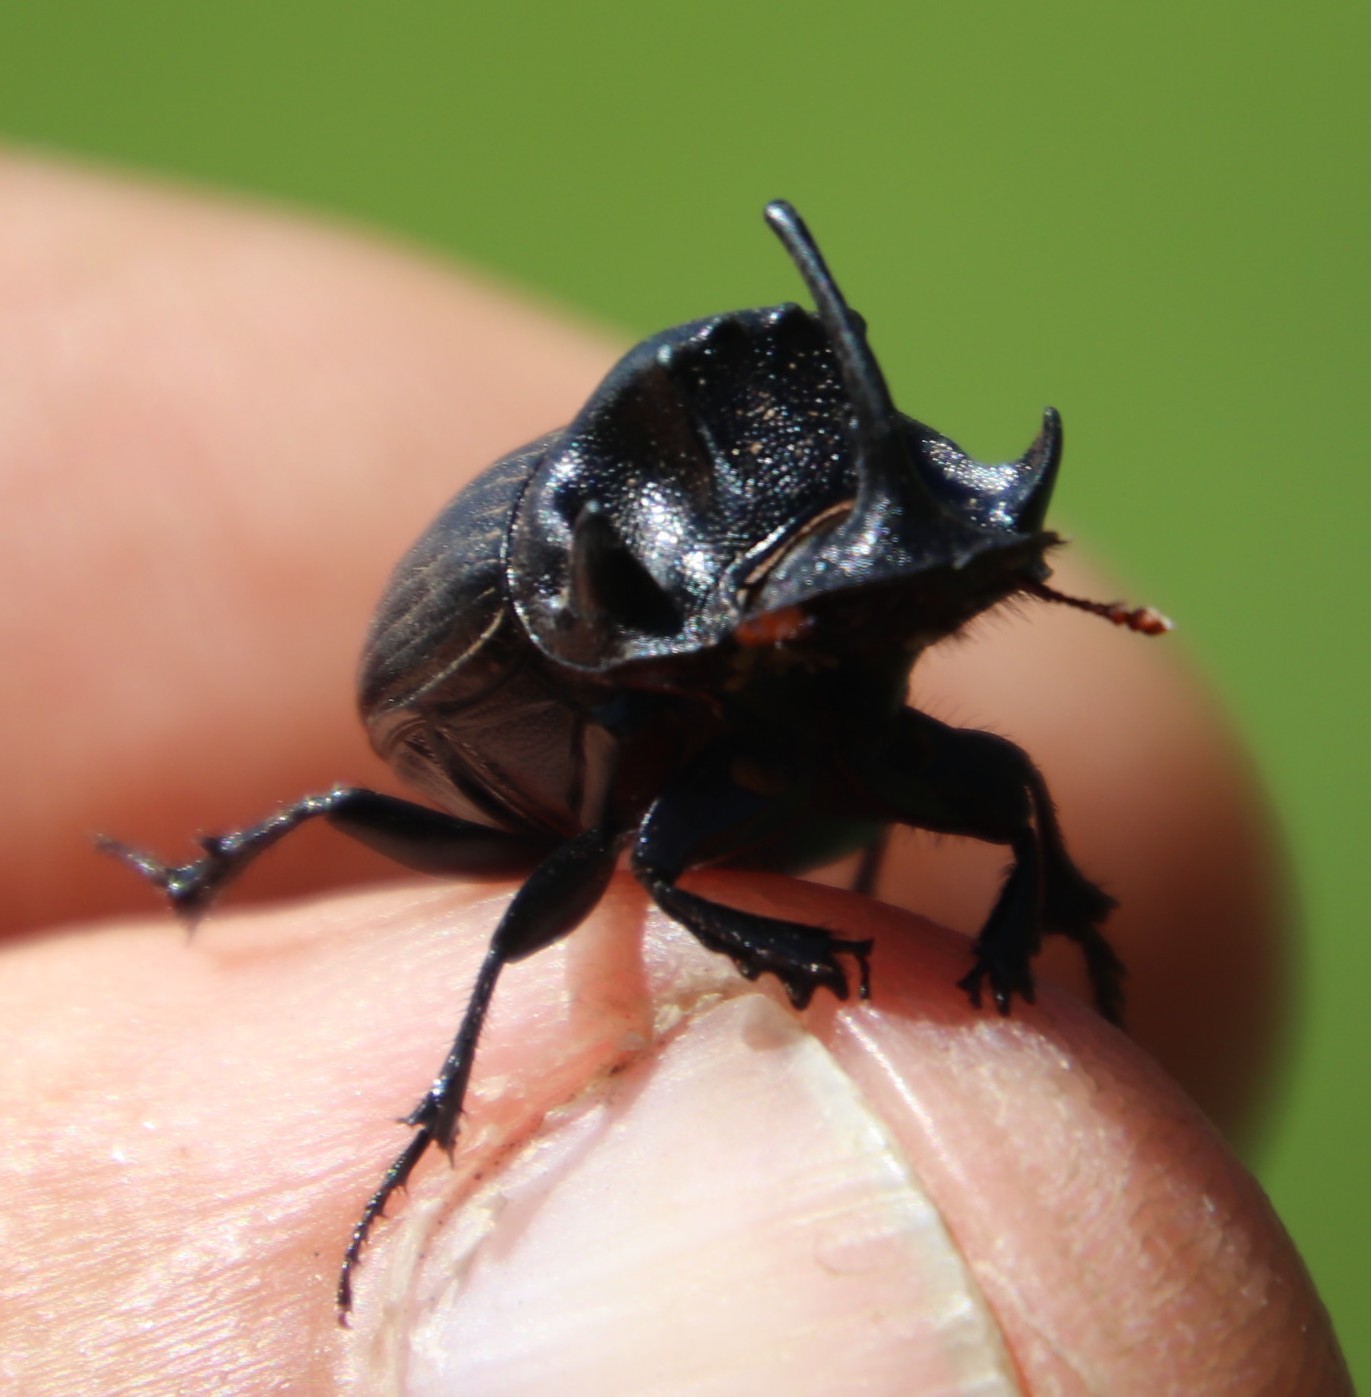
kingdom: Animalia
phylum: Arthropoda
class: Insecta
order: Coleoptera
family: Scarabaeidae
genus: Copris
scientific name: Copris caelatus
